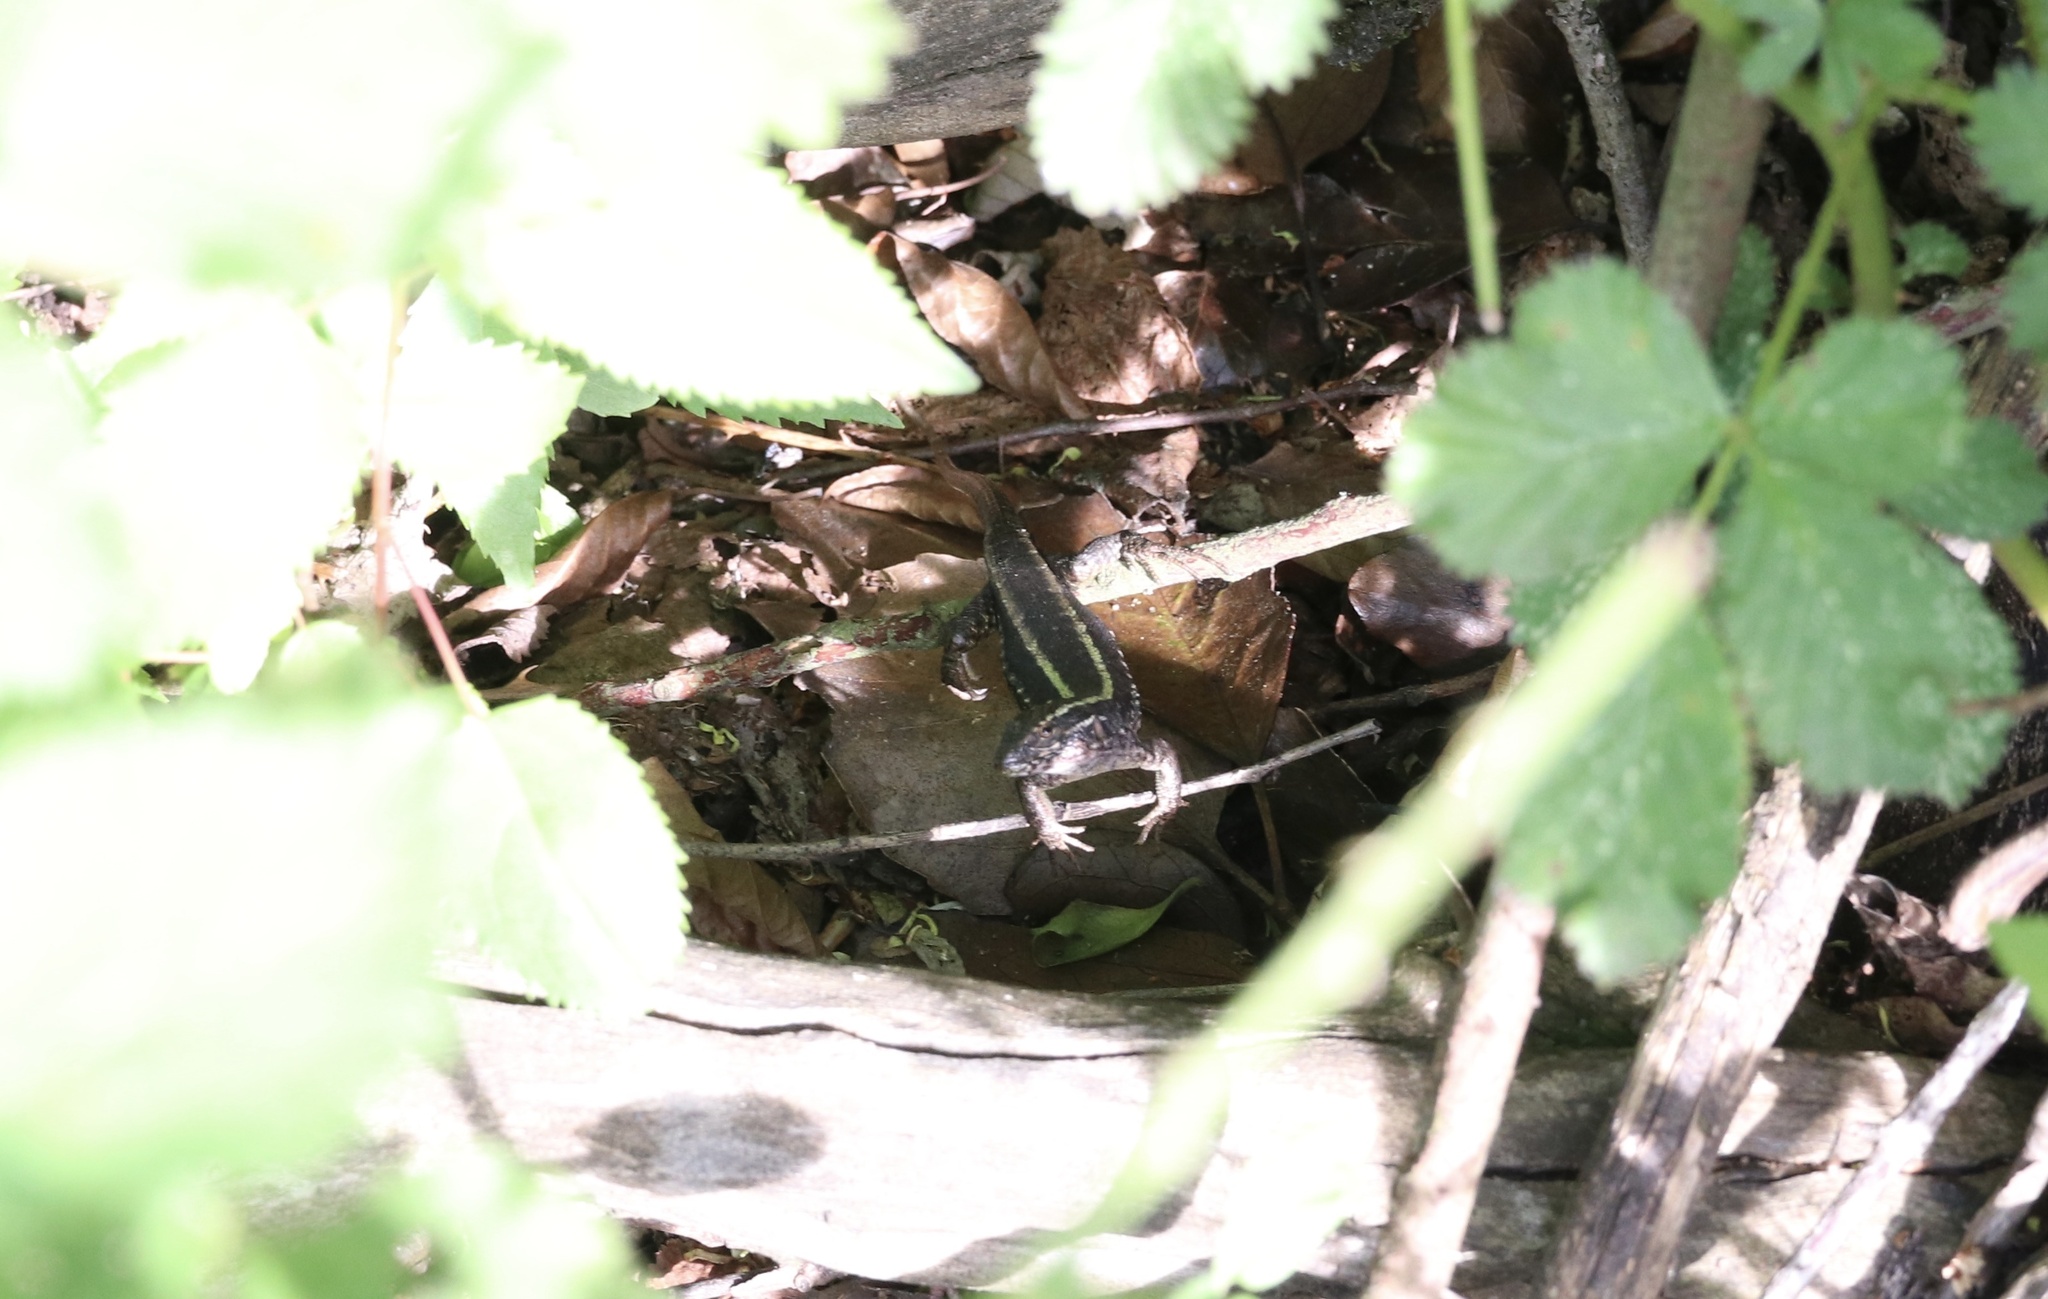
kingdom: Animalia
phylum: Chordata
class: Squamata
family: Liolaemidae
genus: Liolaemus
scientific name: Liolaemus pictus
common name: Painted tree iguana
